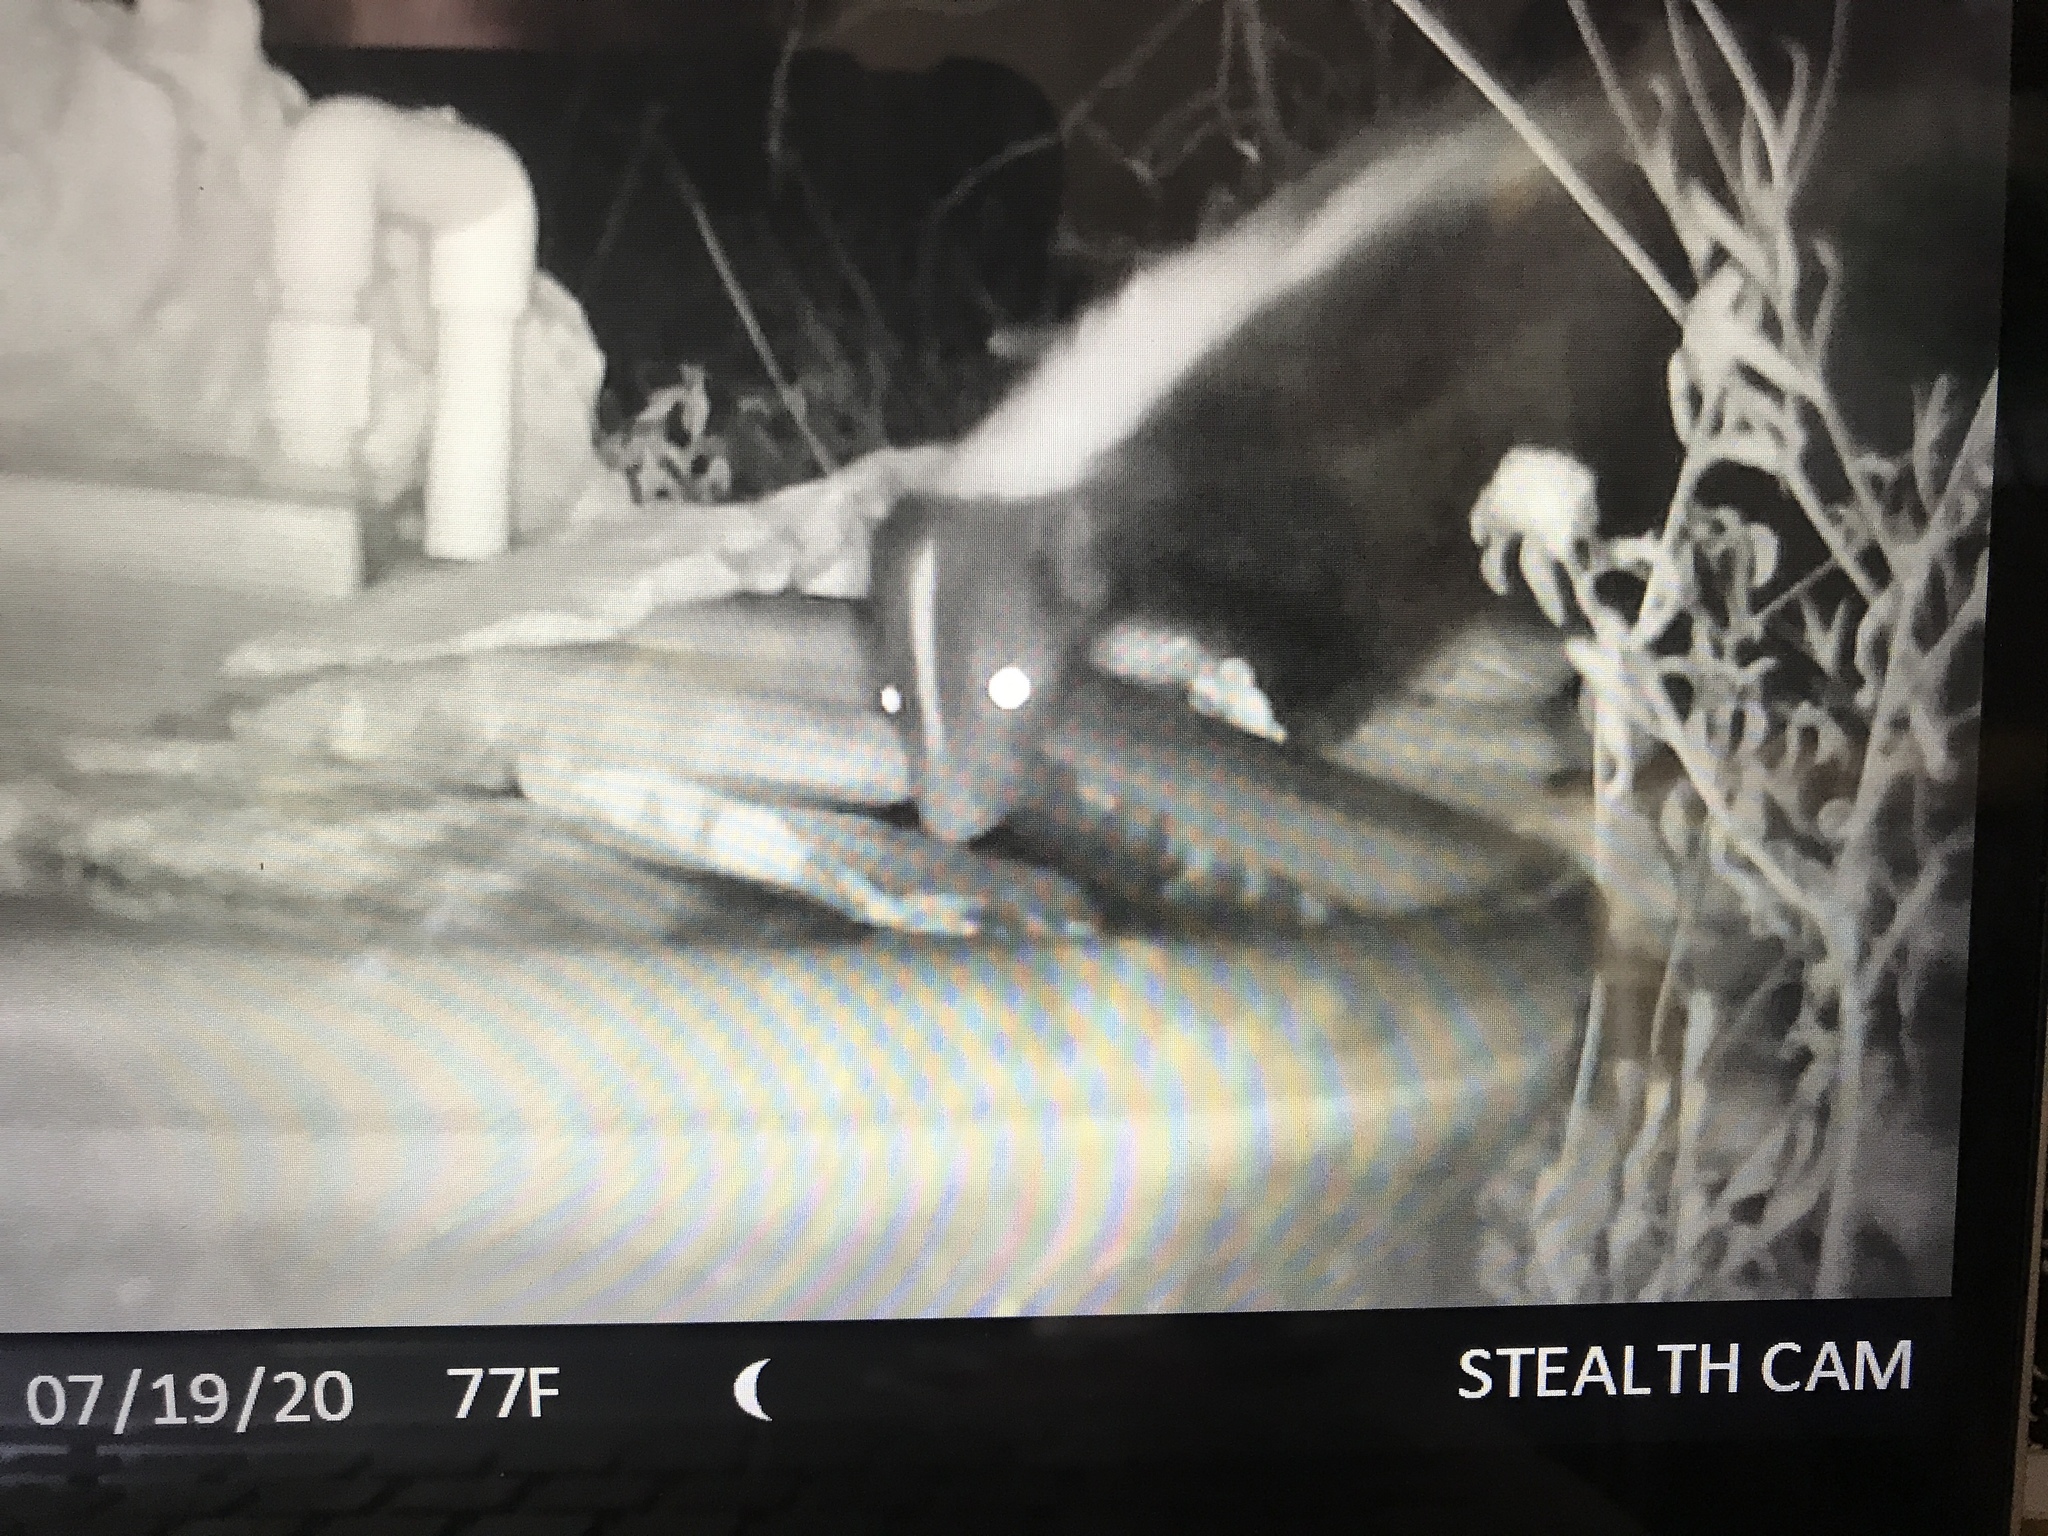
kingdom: Animalia
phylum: Chordata
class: Mammalia
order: Carnivora
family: Mephitidae
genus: Mephitis
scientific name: Mephitis mephitis
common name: Striped skunk
